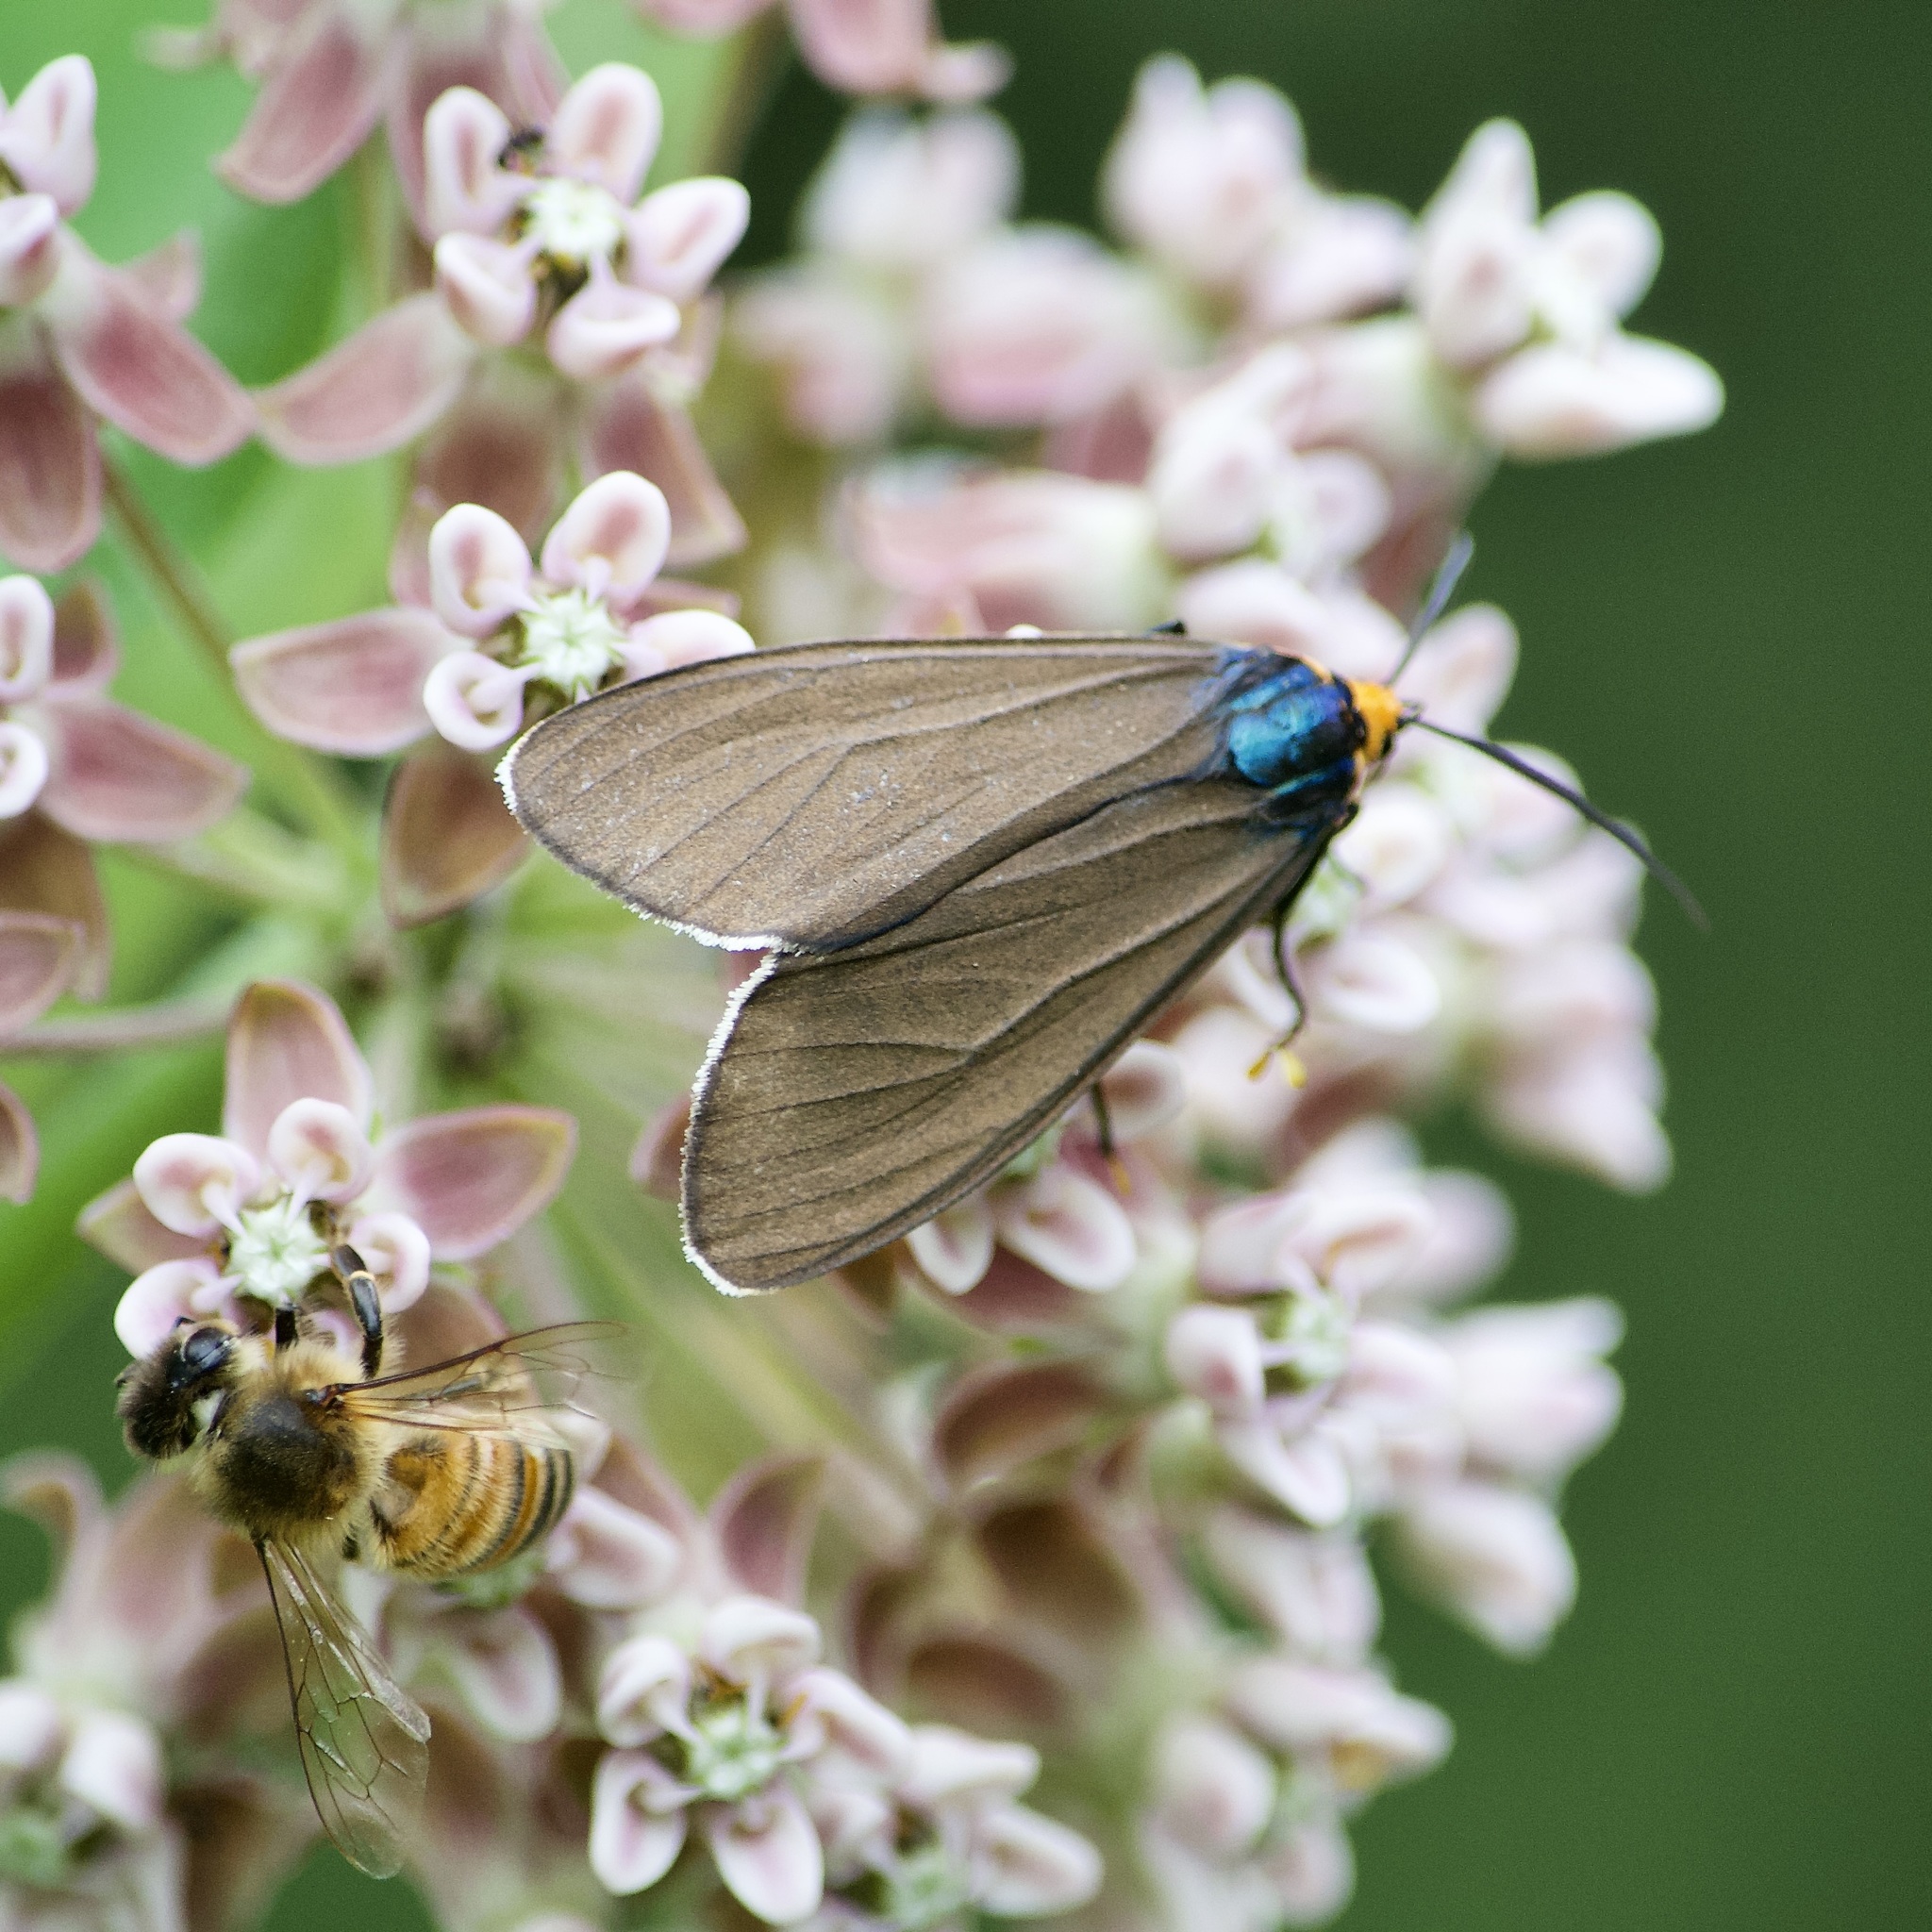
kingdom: Animalia
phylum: Arthropoda
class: Insecta
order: Lepidoptera
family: Erebidae
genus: Ctenucha
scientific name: Ctenucha virginica
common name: Virginia ctenucha moth
